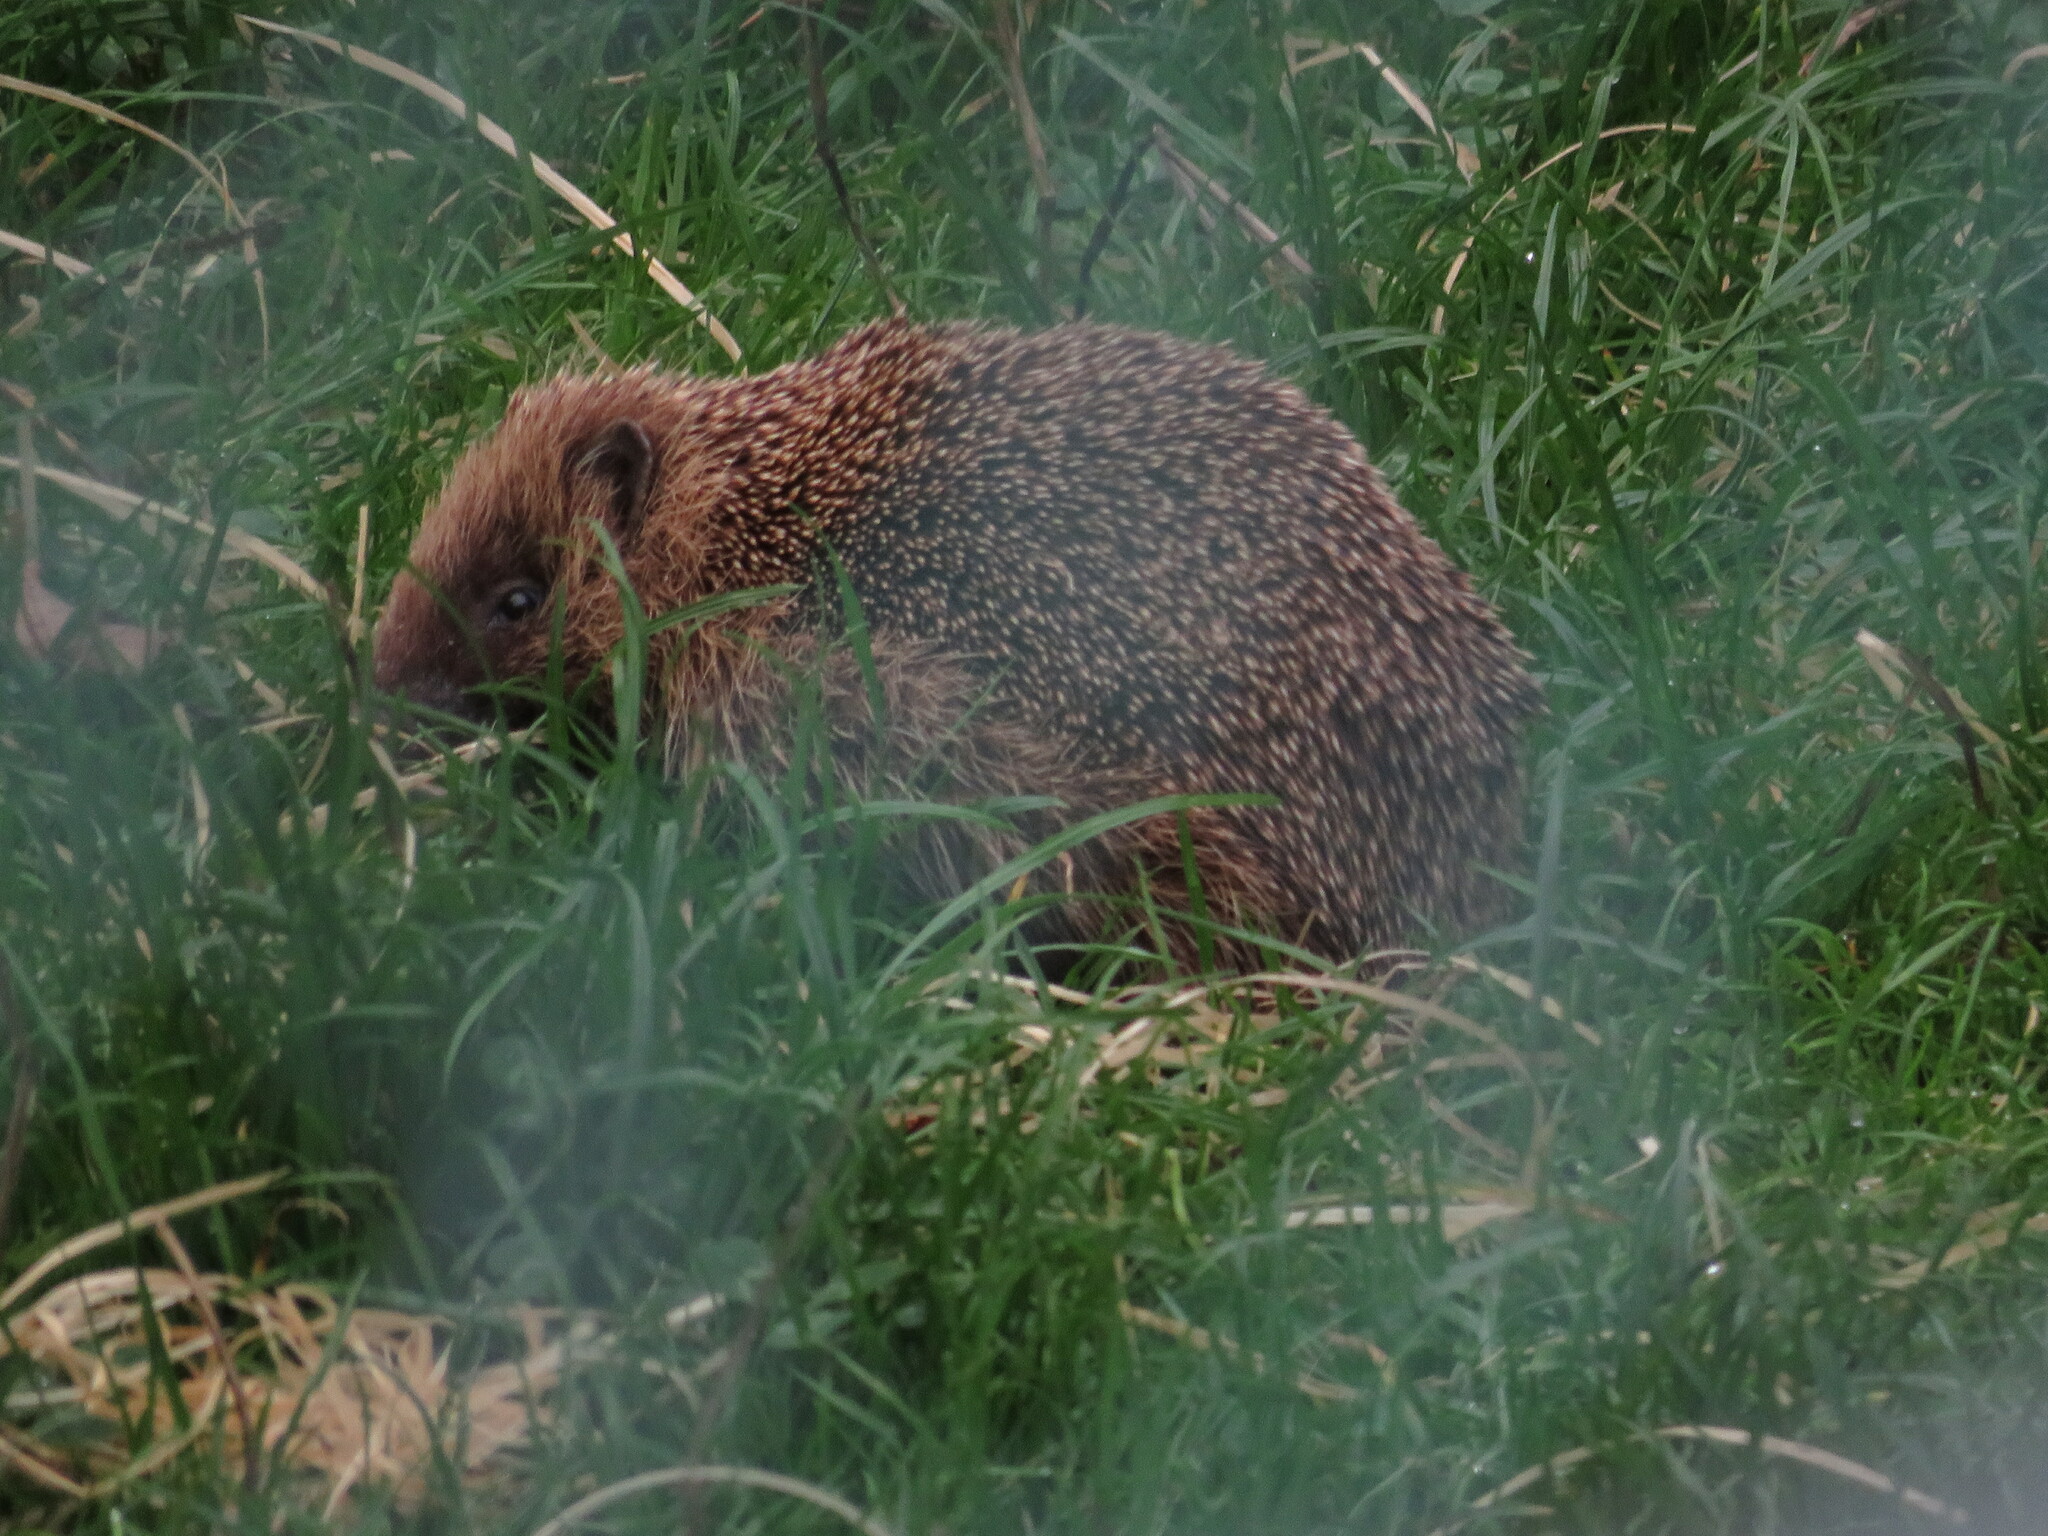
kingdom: Animalia
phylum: Chordata
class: Mammalia
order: Erinaceomorpha
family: Erinaceidae
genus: Erinaceus
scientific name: Erinaceus europaeus
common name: West european hedgehog
